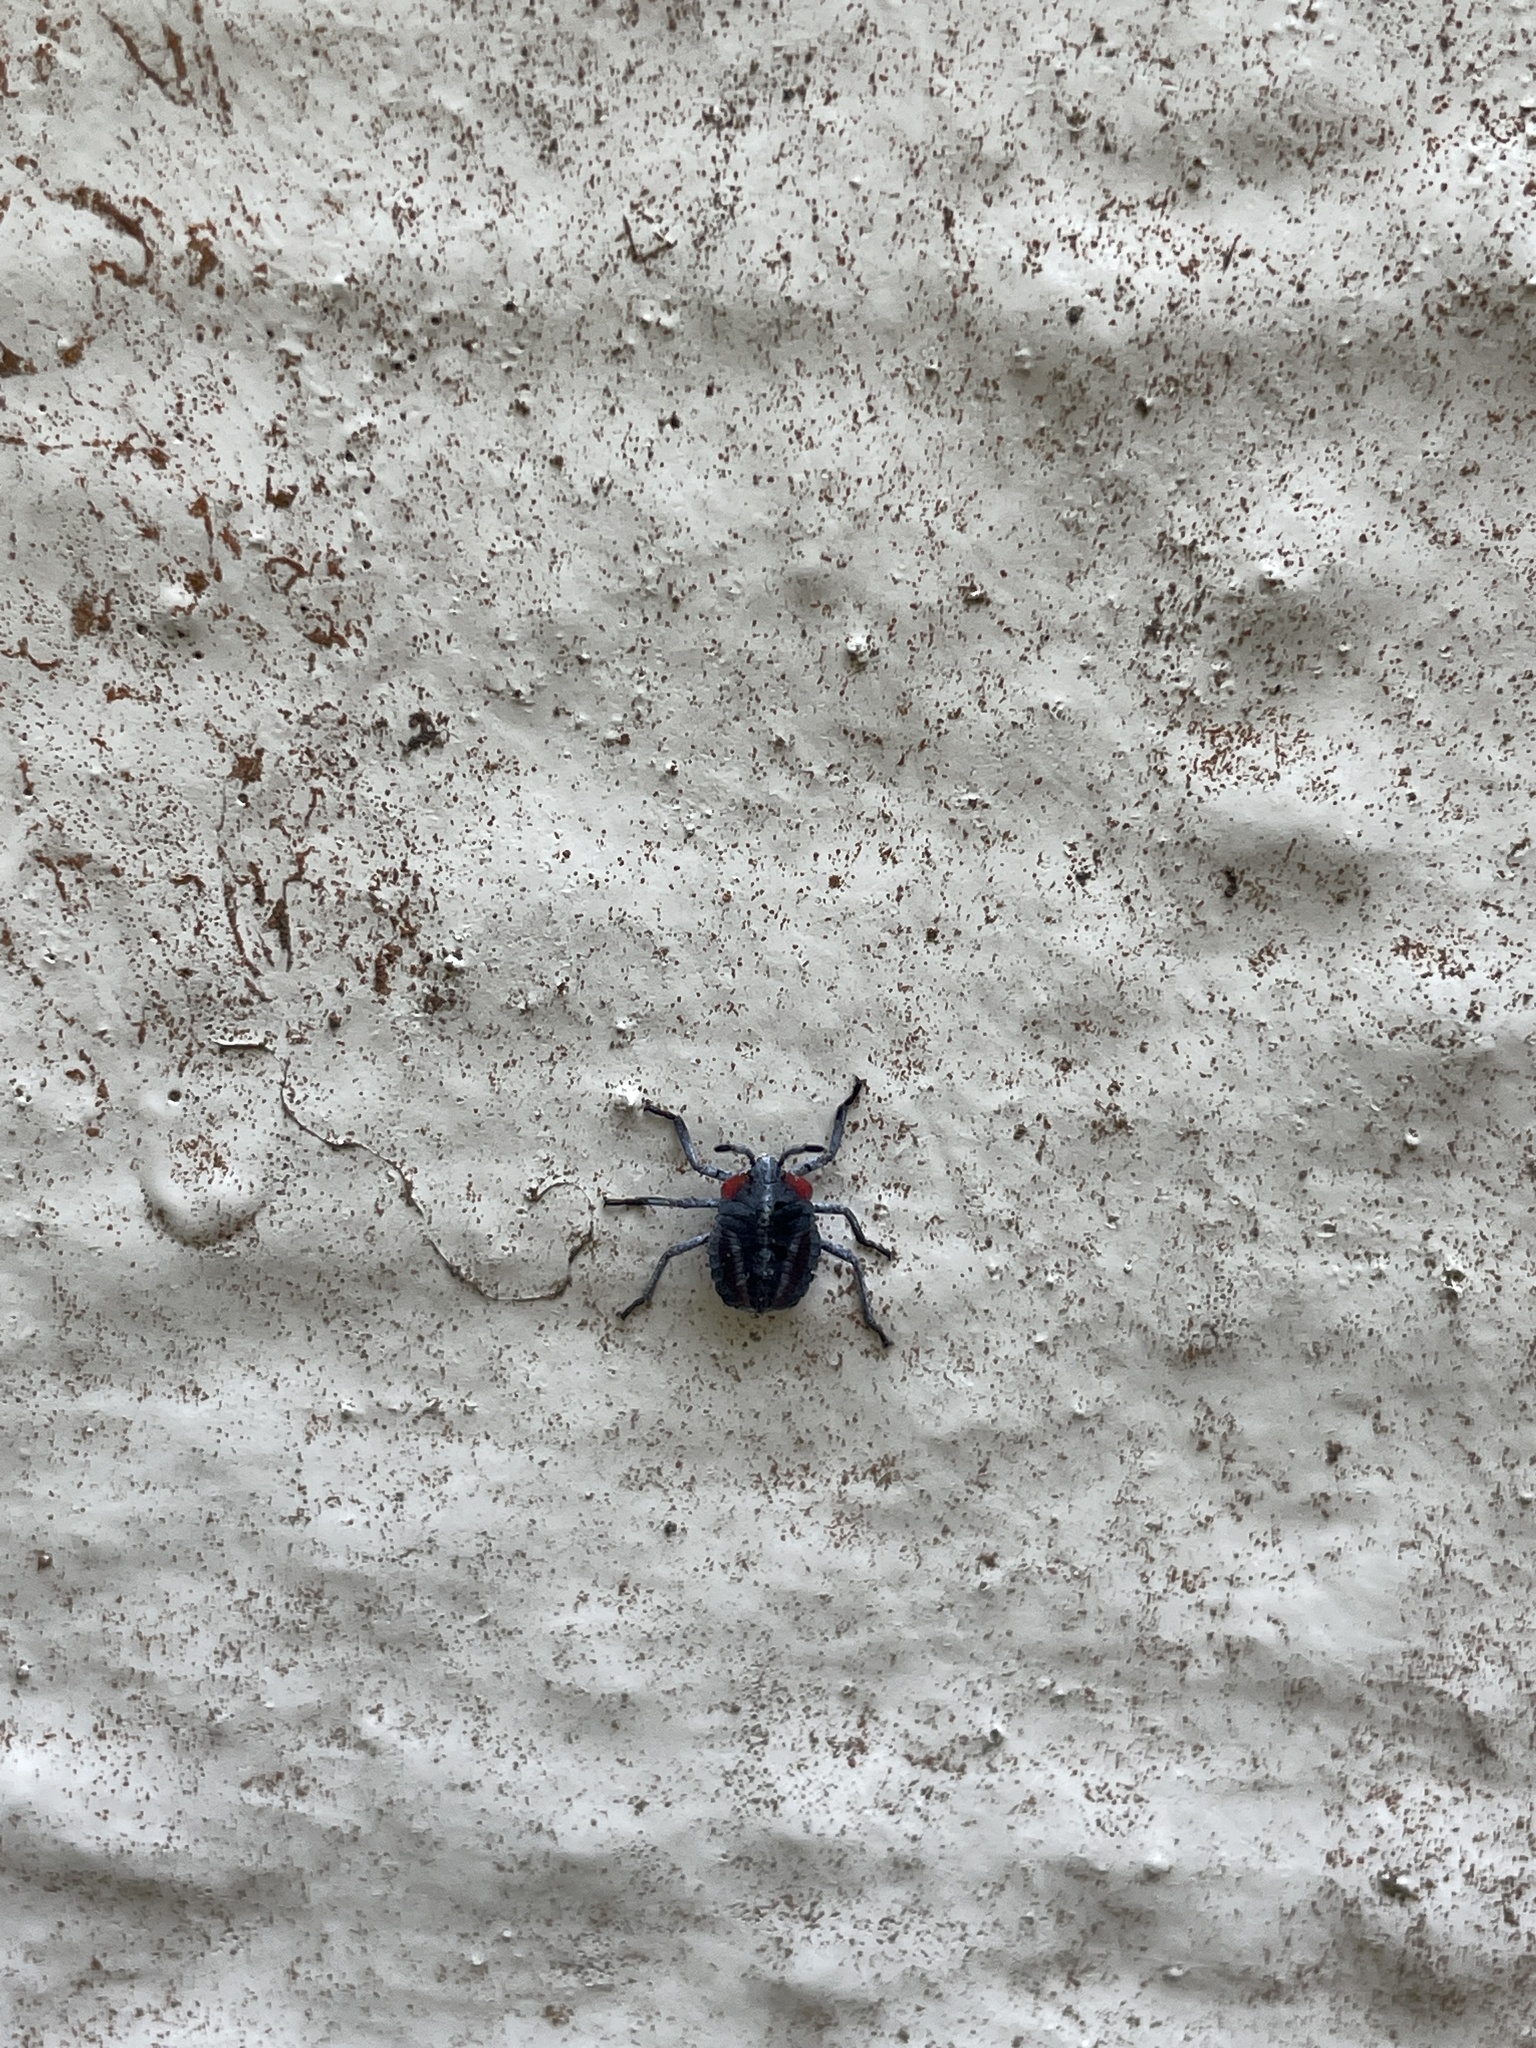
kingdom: Animalia
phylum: Arthropoda
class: Insecta
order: Hemiptera
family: Tessaratomidae
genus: Tessaratoma
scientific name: Tessaratoma papillosa
